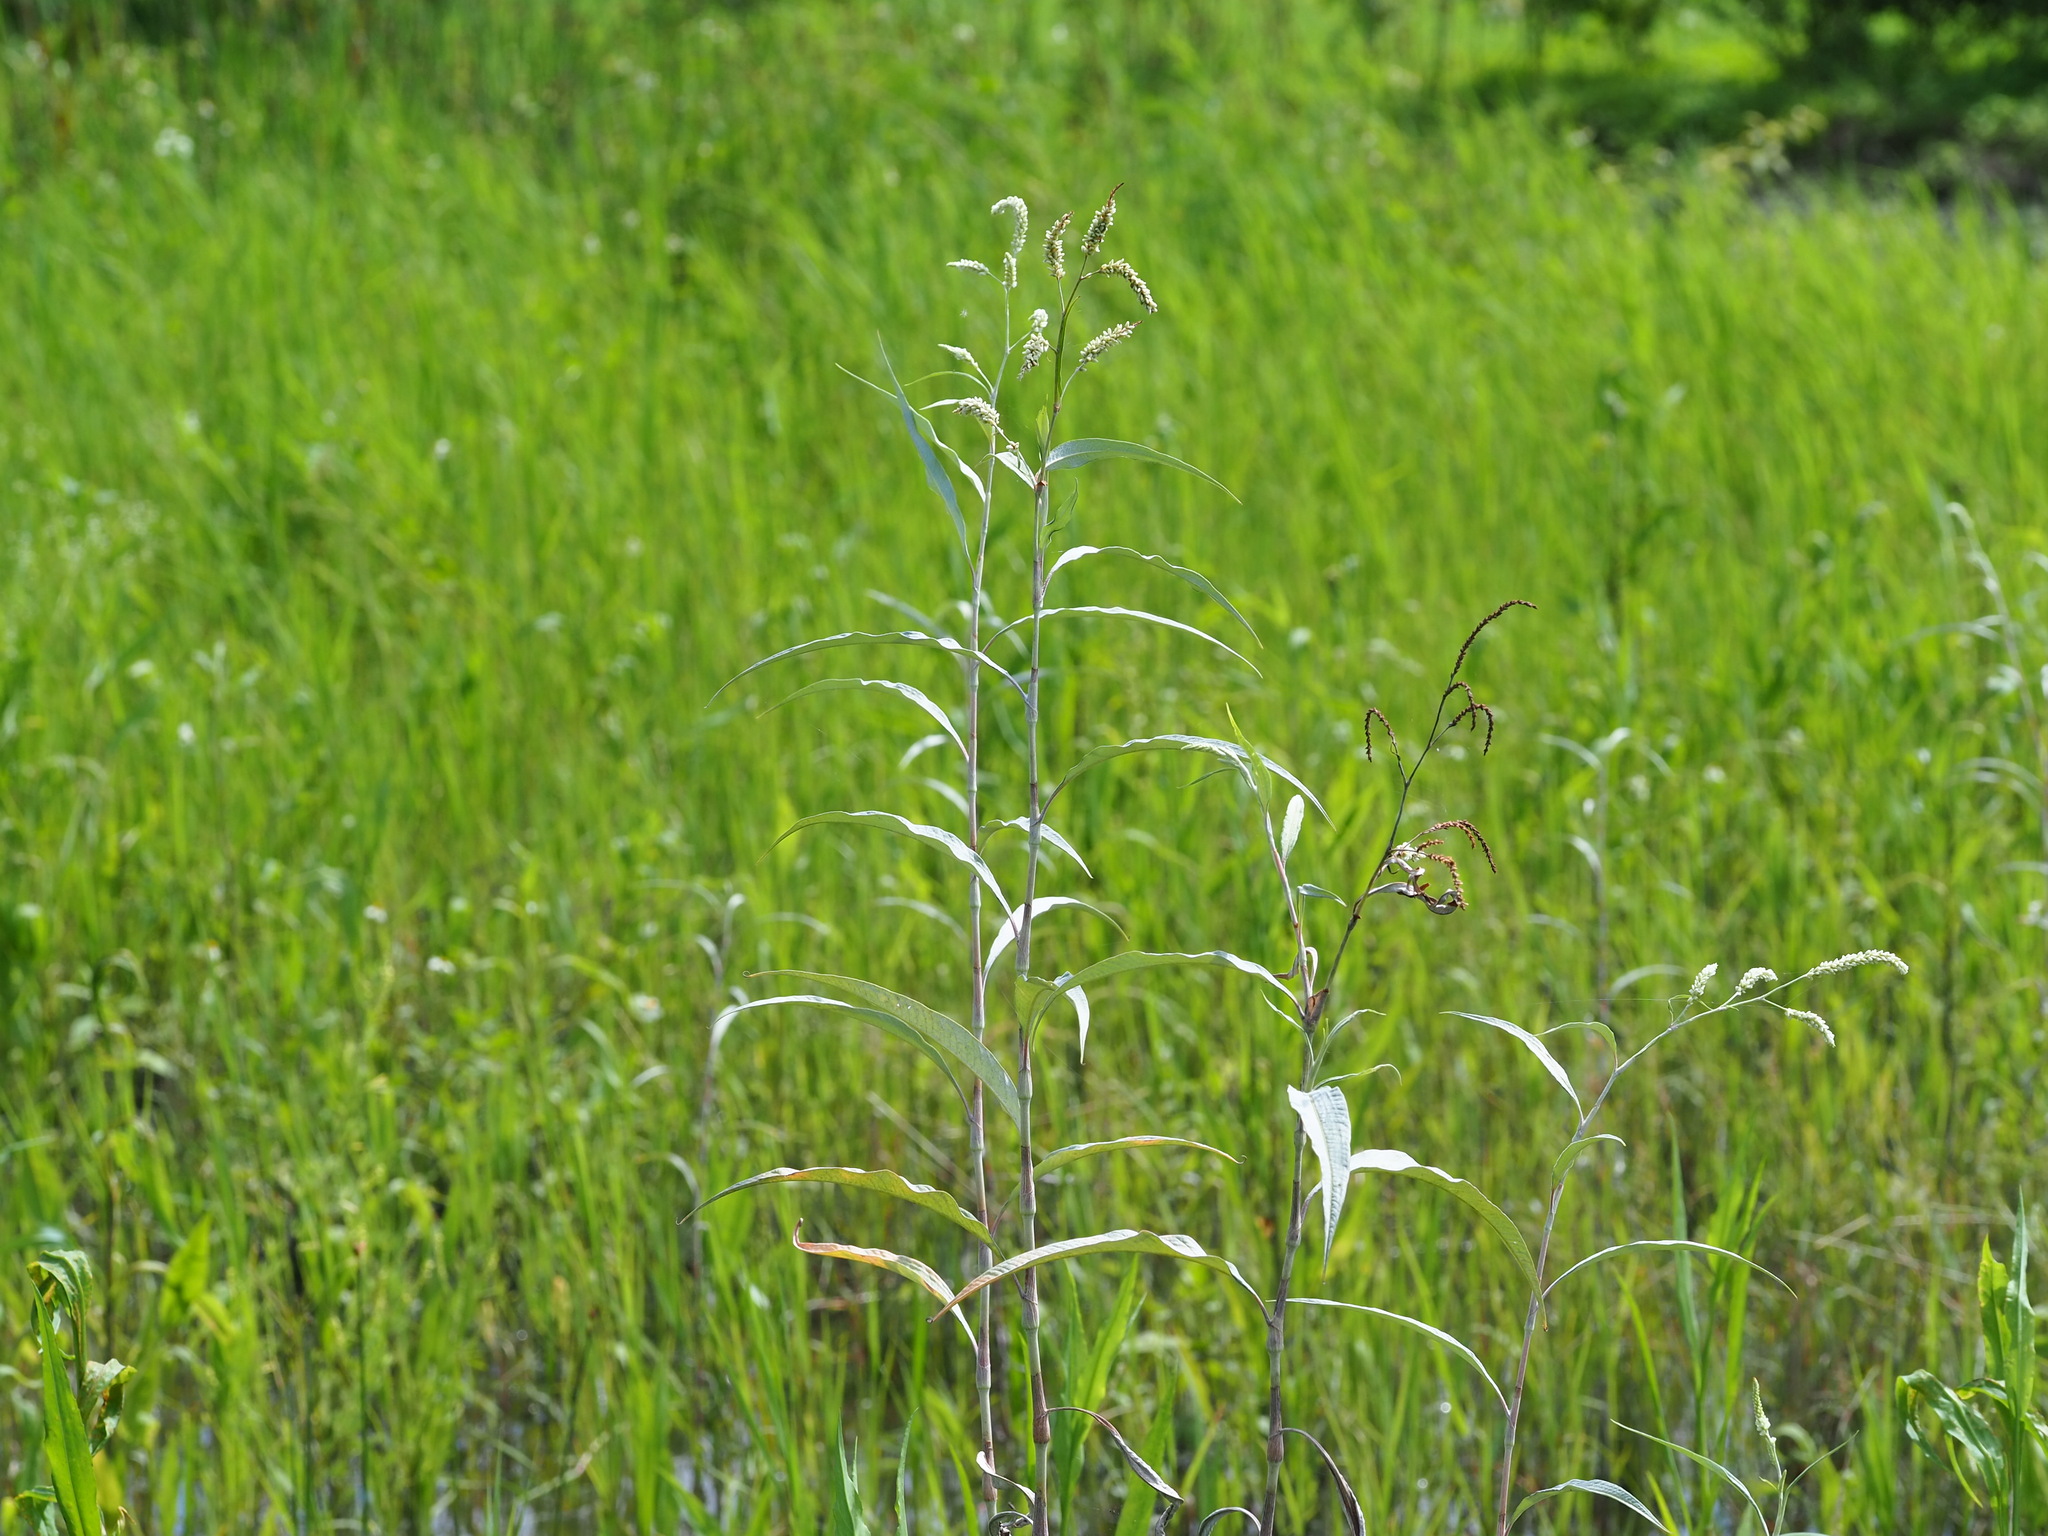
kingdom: Plantae
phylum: Tracheophyta
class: Magnoliopsida
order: Caryophyllales
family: Polygonaceae
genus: Persicaria
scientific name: Persicaria lanata
